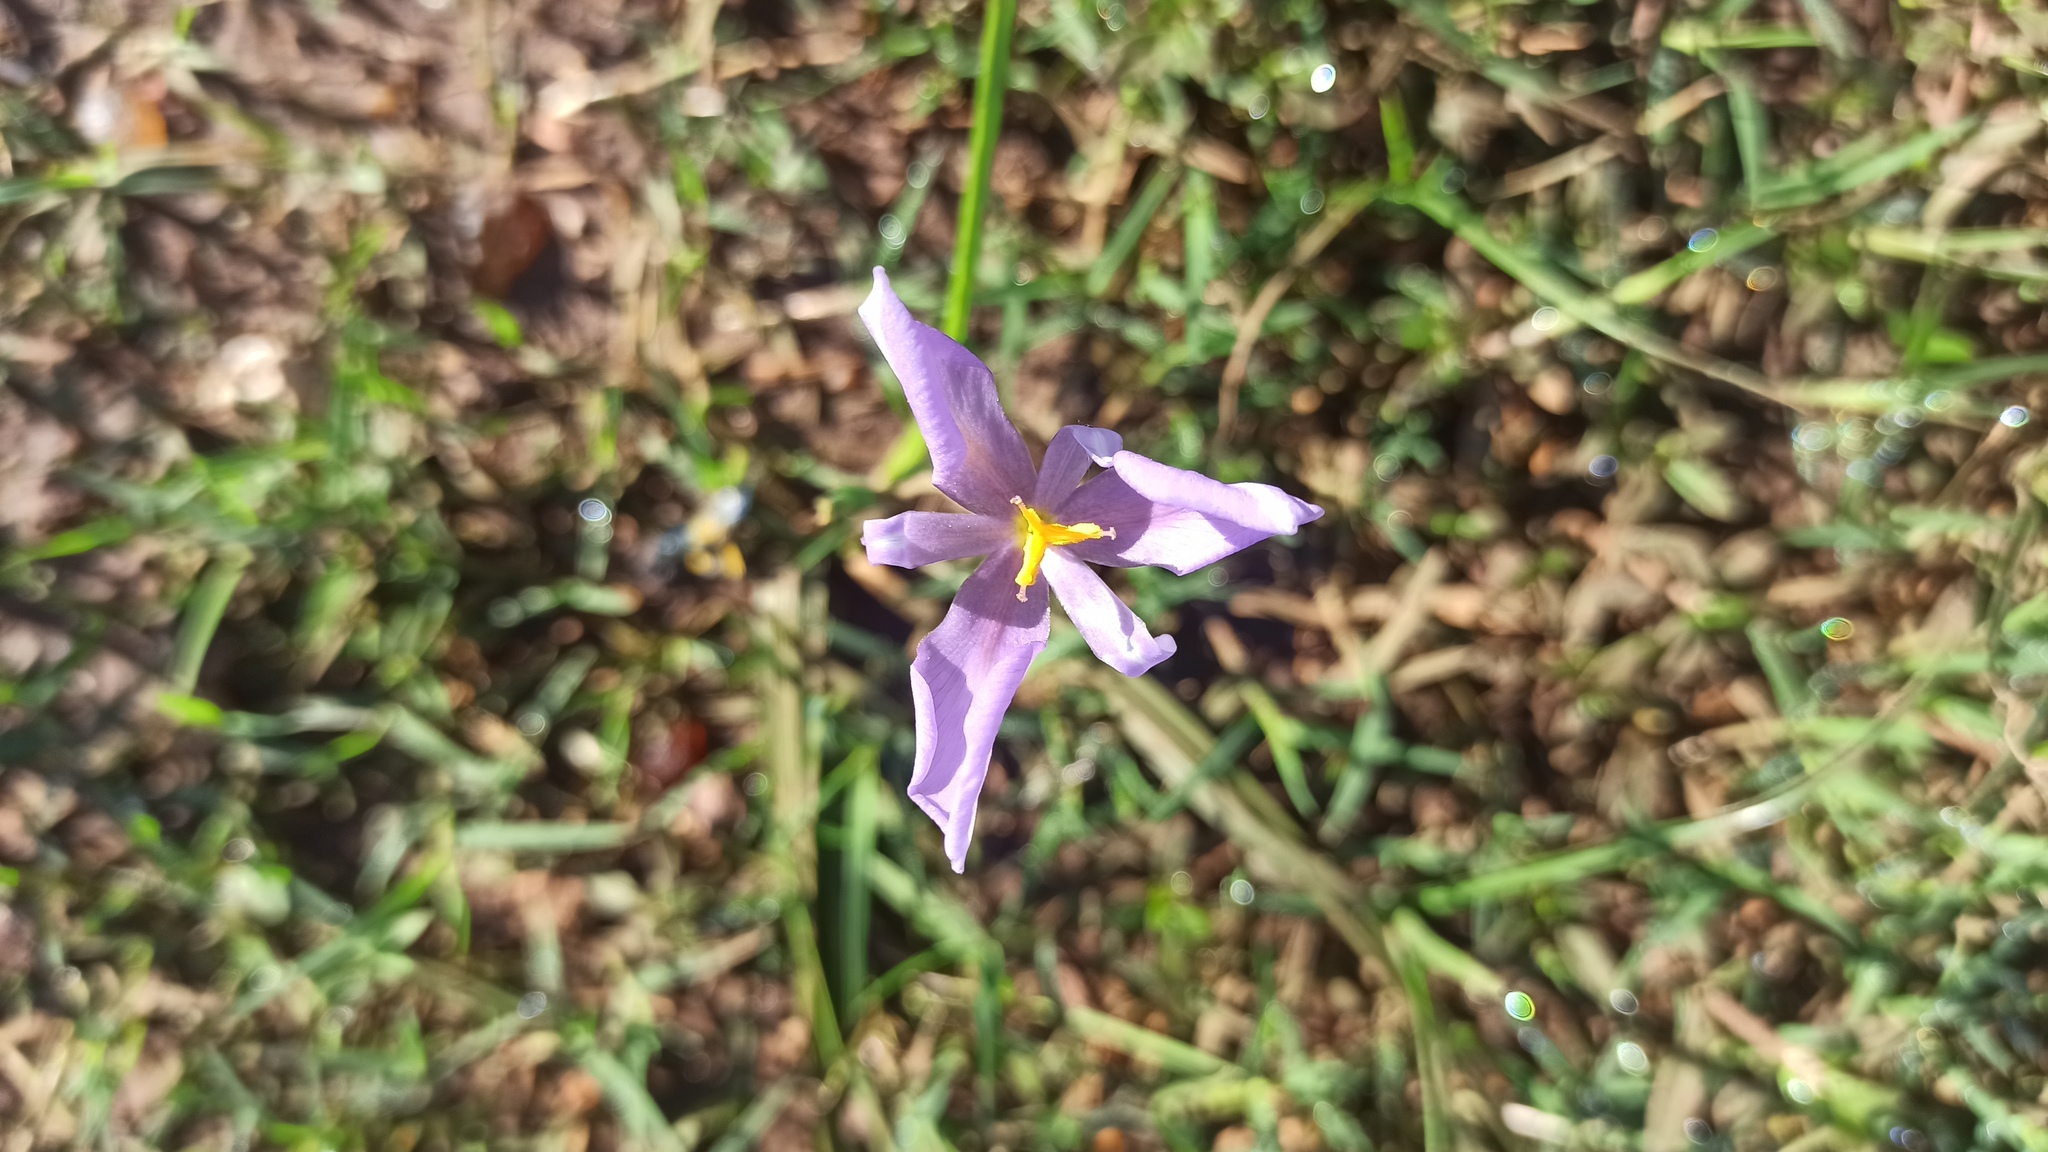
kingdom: Plantae
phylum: Tracheophyta
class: Liliopsida
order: Asparagales
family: Iridaceae
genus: Calydorea
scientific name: Calydorea amabilis
